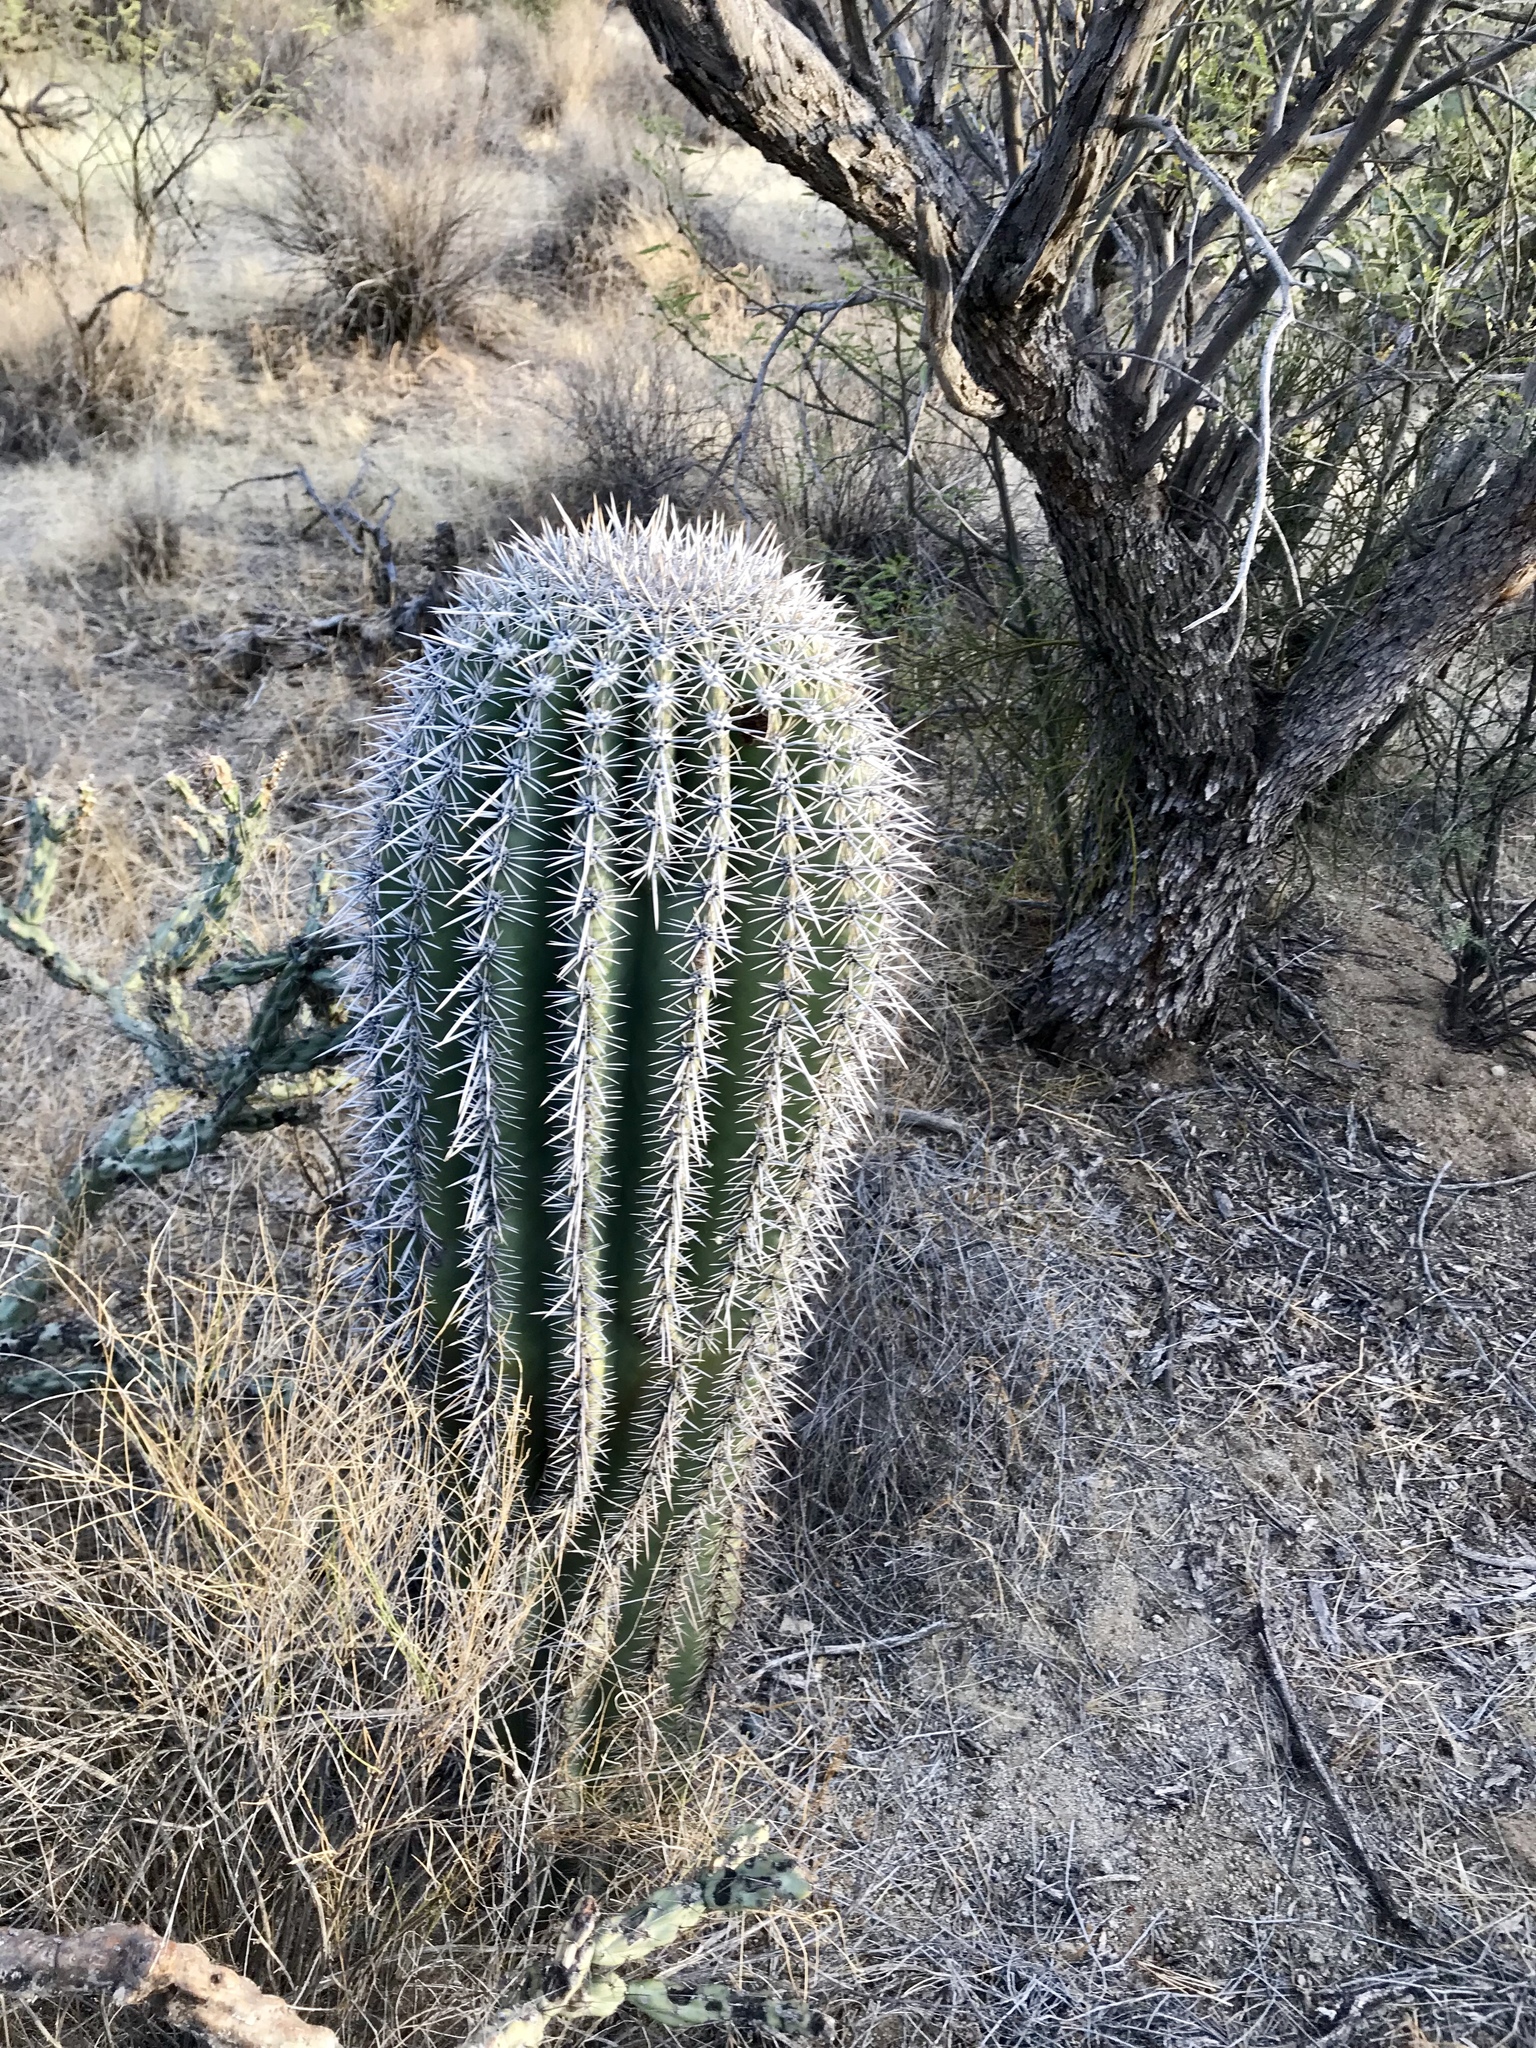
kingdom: Plantae
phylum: Tracheophyta
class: Magnoliopsida
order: Caryophyllales
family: Cactaceae
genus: Carnegiea
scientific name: Carnegiea gigantea
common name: Saguaro
